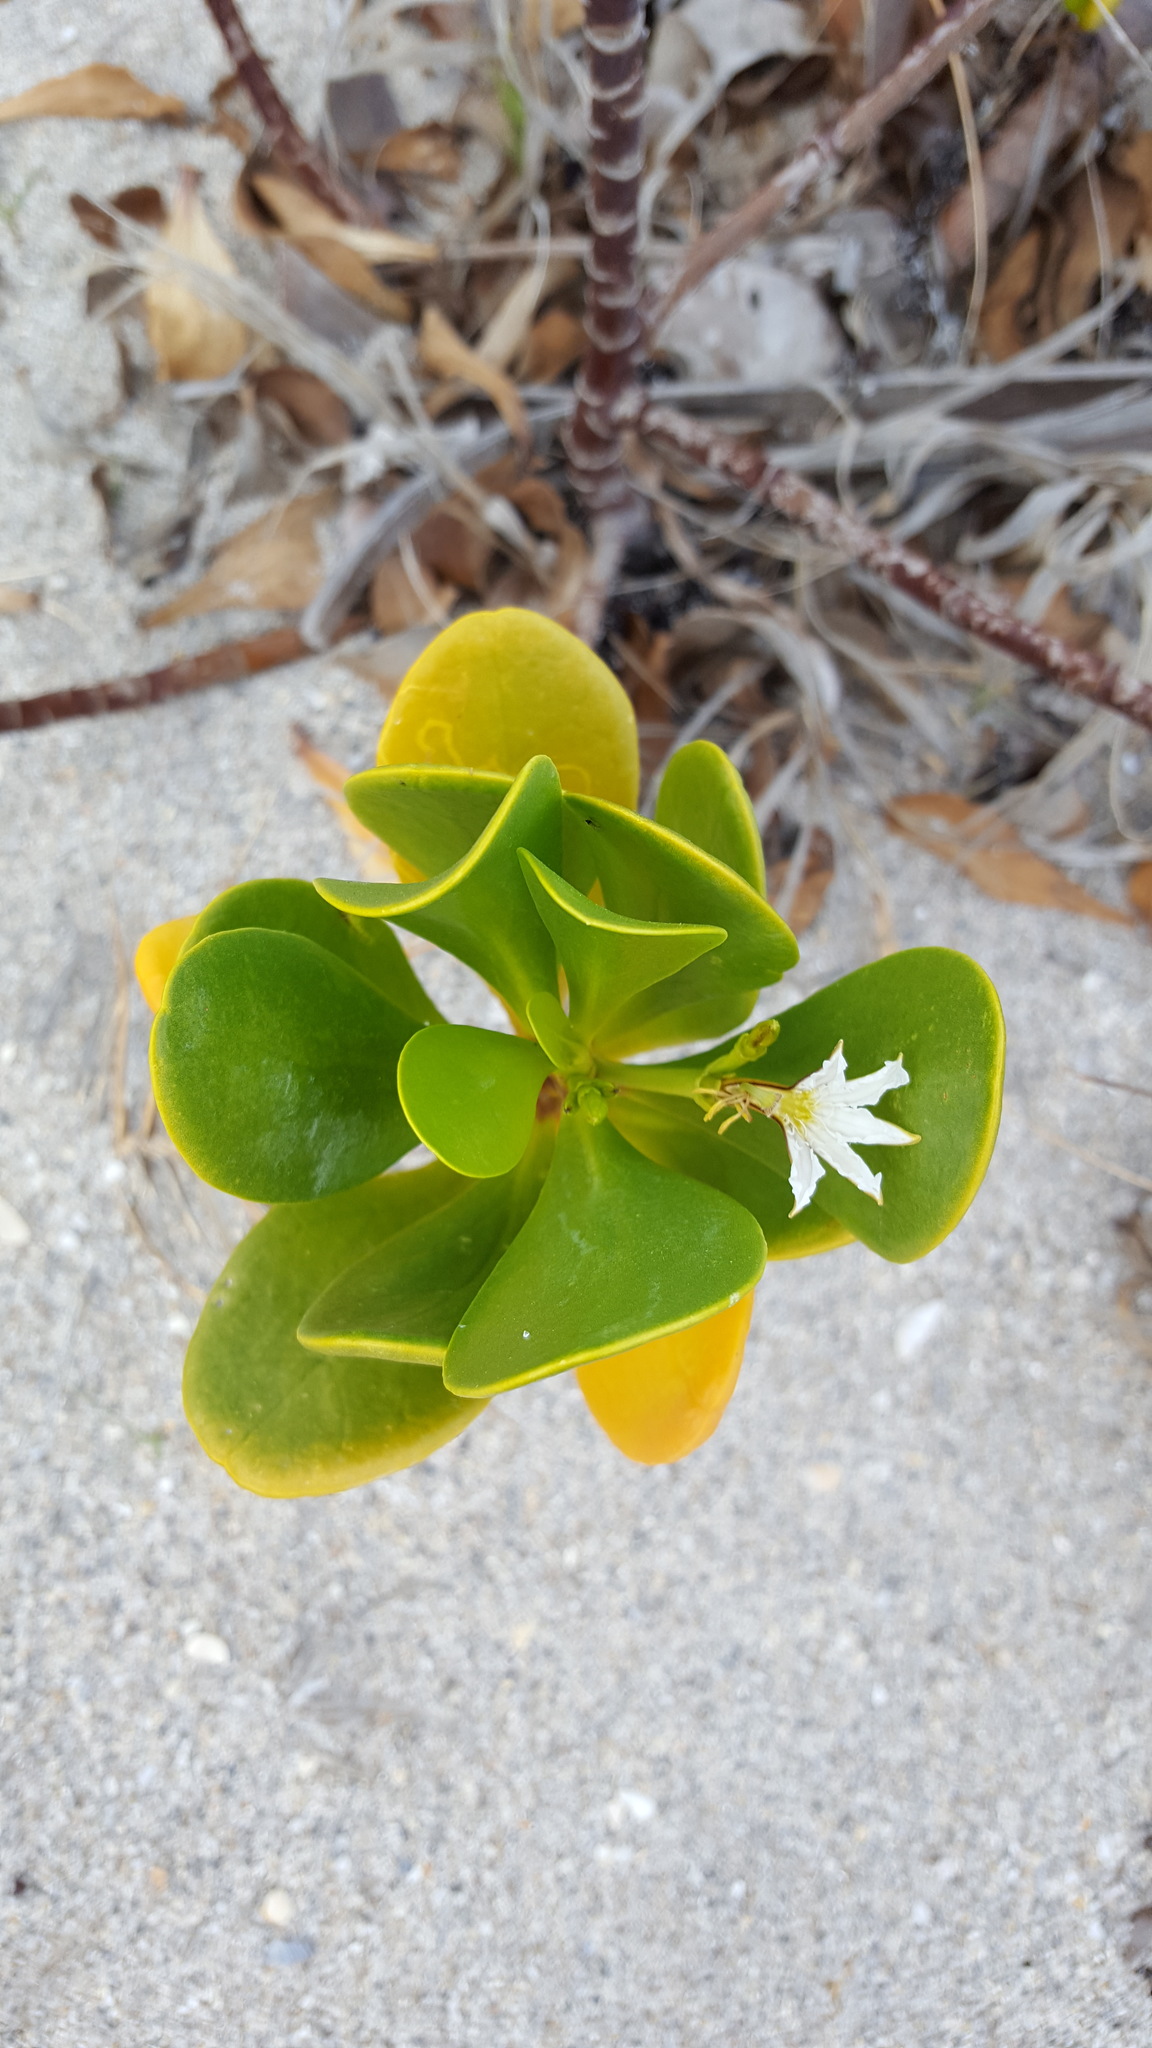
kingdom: Plantae
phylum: Tracheophyta
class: Magnoliopsida
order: Asterales
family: Goodeniaceae
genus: Scaevola
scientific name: Scaevola plumieri
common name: Gull feed
